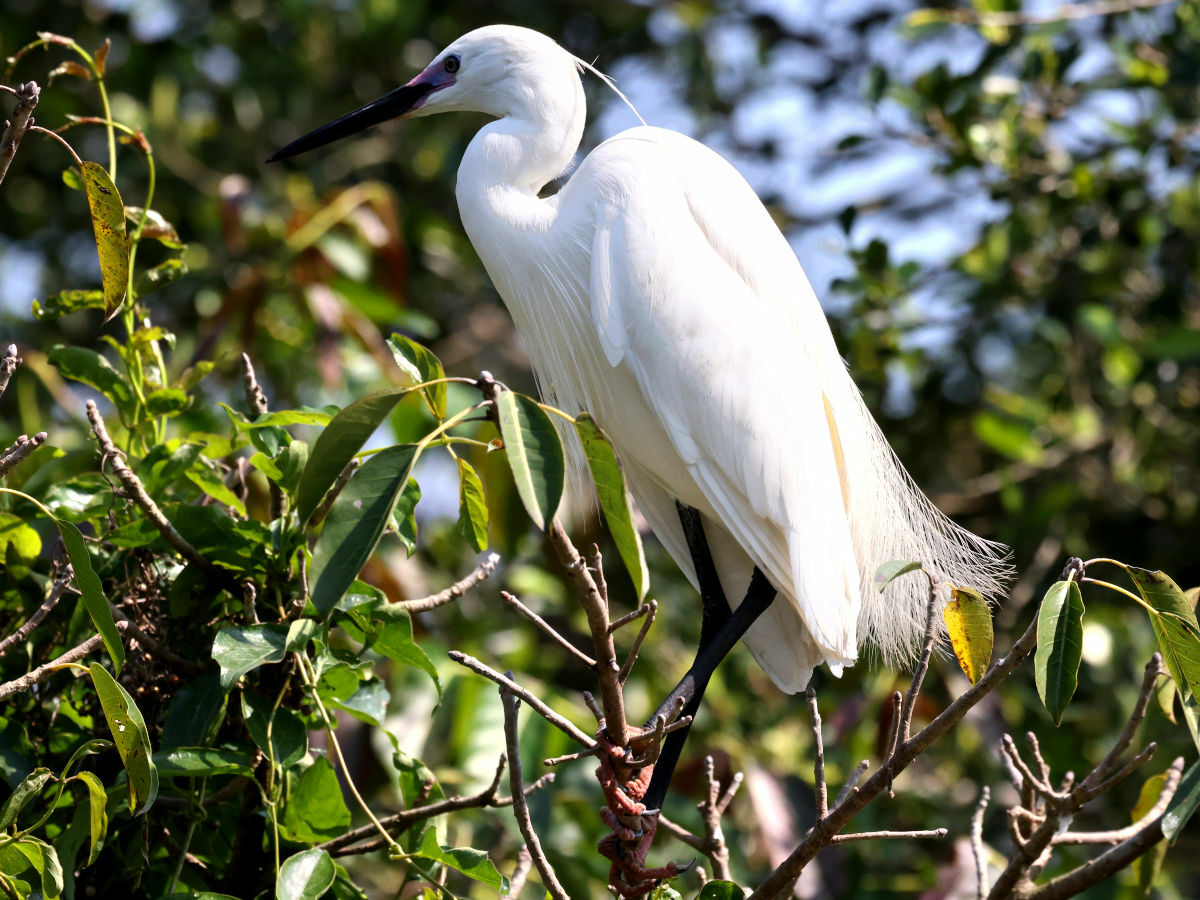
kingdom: Animalia
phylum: Chordata
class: Aves
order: Pelecaniformes
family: Ardeidae
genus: Egretta
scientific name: Egretta garzetta
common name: Little egret
